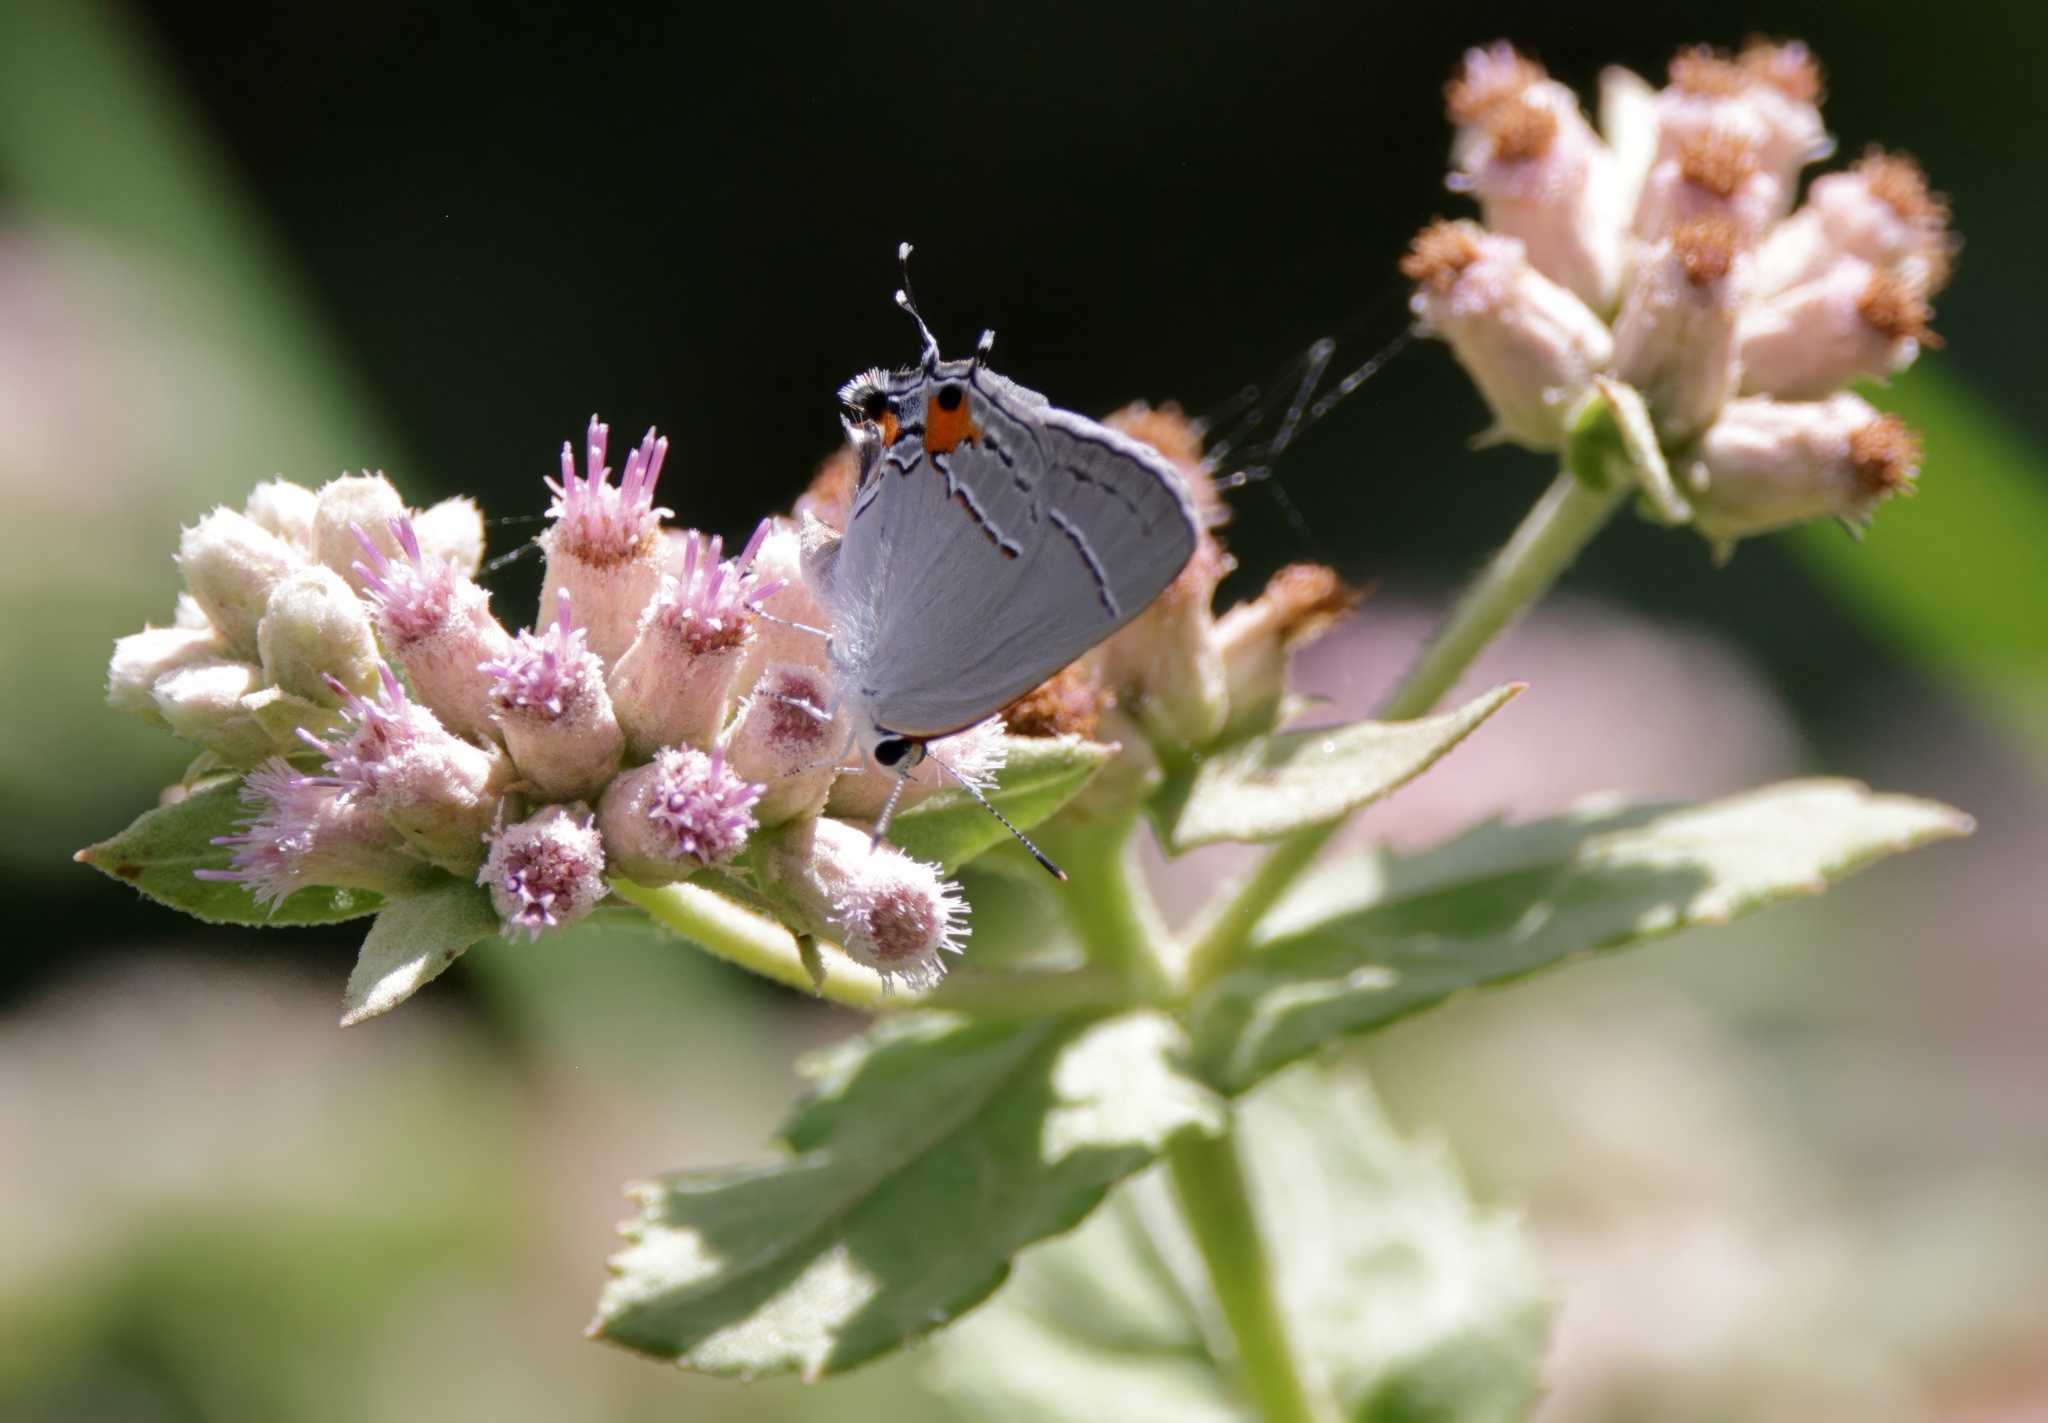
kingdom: Animalia
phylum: Arthropoda
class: Insecta
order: Lepidoptera
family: Lycaenidae
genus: Strymon
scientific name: Strymon melinus
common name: Gray hairstreak
